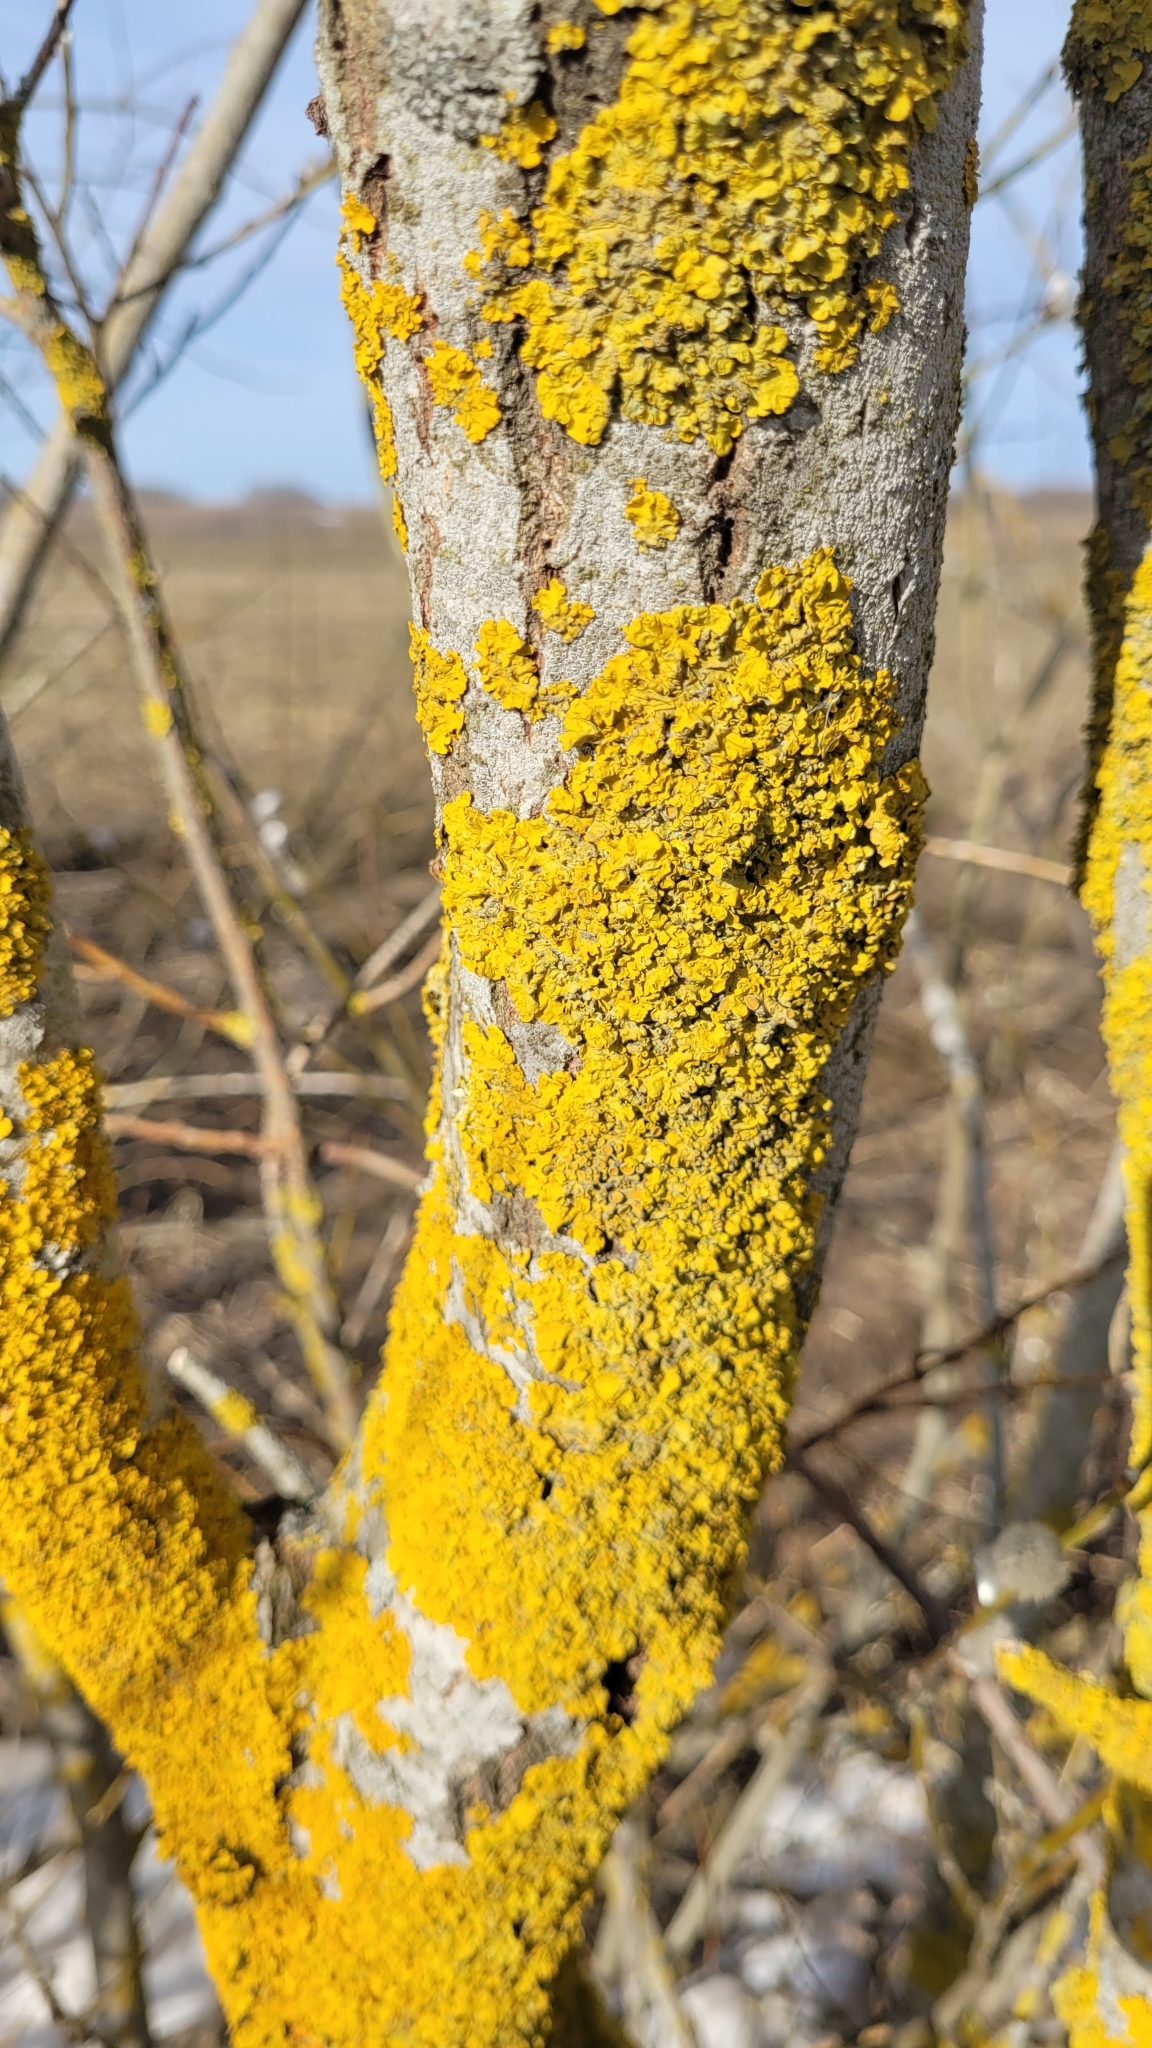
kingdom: Fungi
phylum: Ascomycota
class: Lecanoromycetes
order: Teloschistales
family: Teloschistaceae
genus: Xanthoria
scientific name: Xanthoria parietina
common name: Common orange lichen
